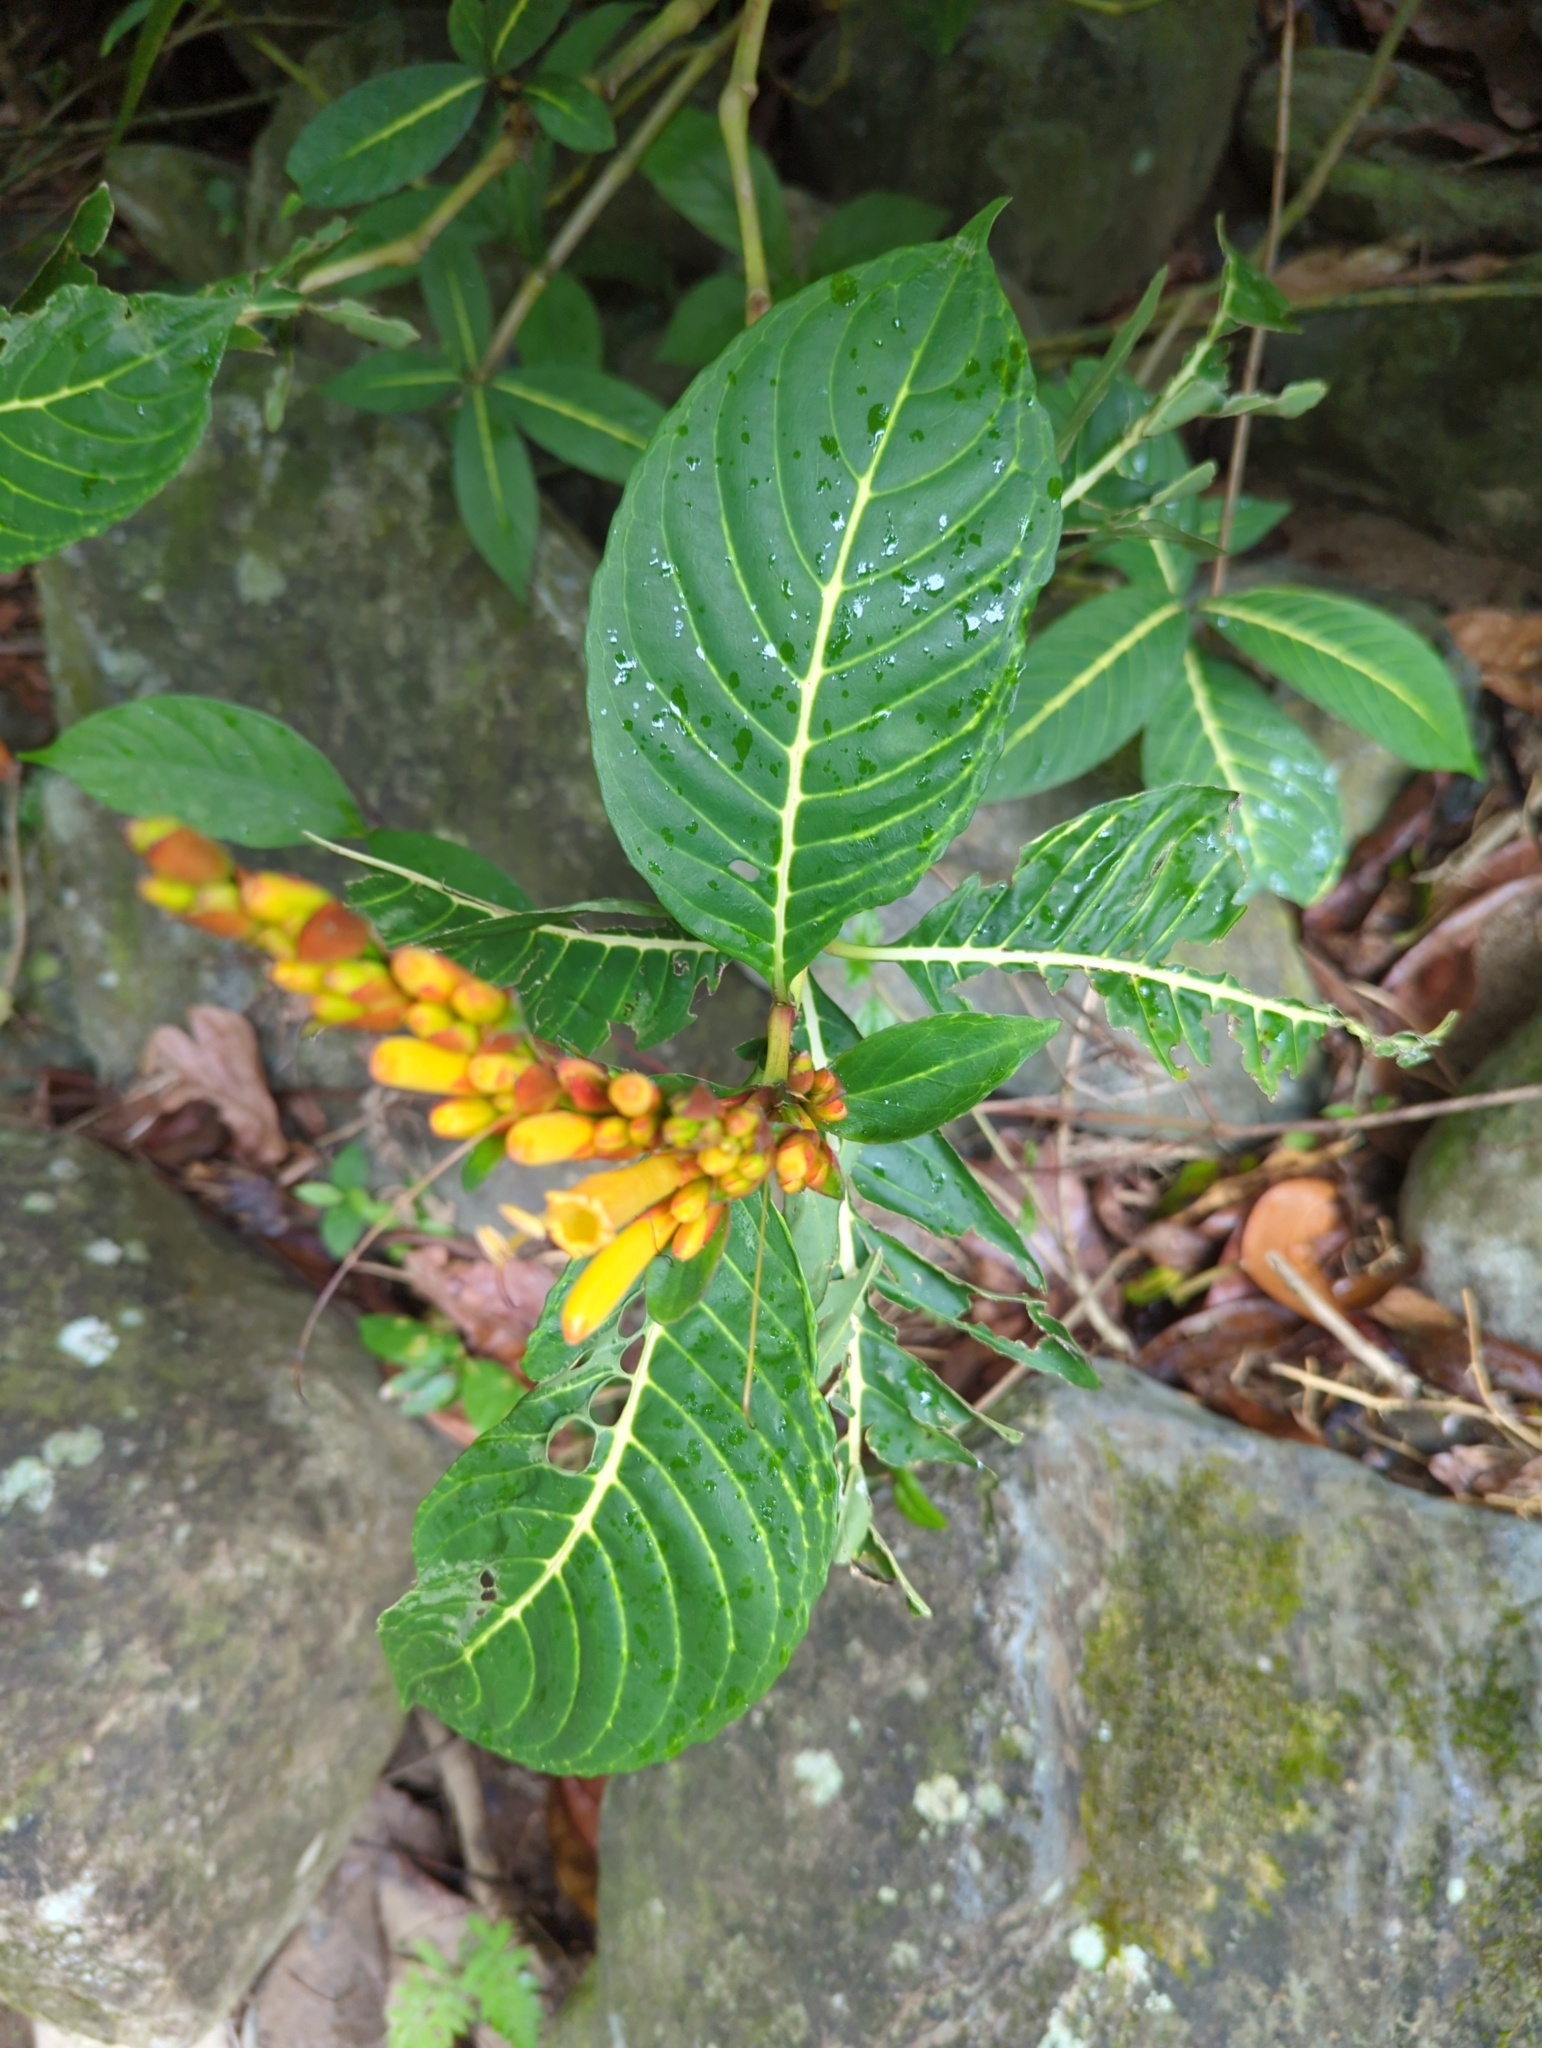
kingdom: Plantae
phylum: Tracheophyta
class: Magnoliopsida
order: Lamiales
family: Acanthaceae
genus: Sanchezia
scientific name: Sanchezia parvibracteata
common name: Sanchezia
